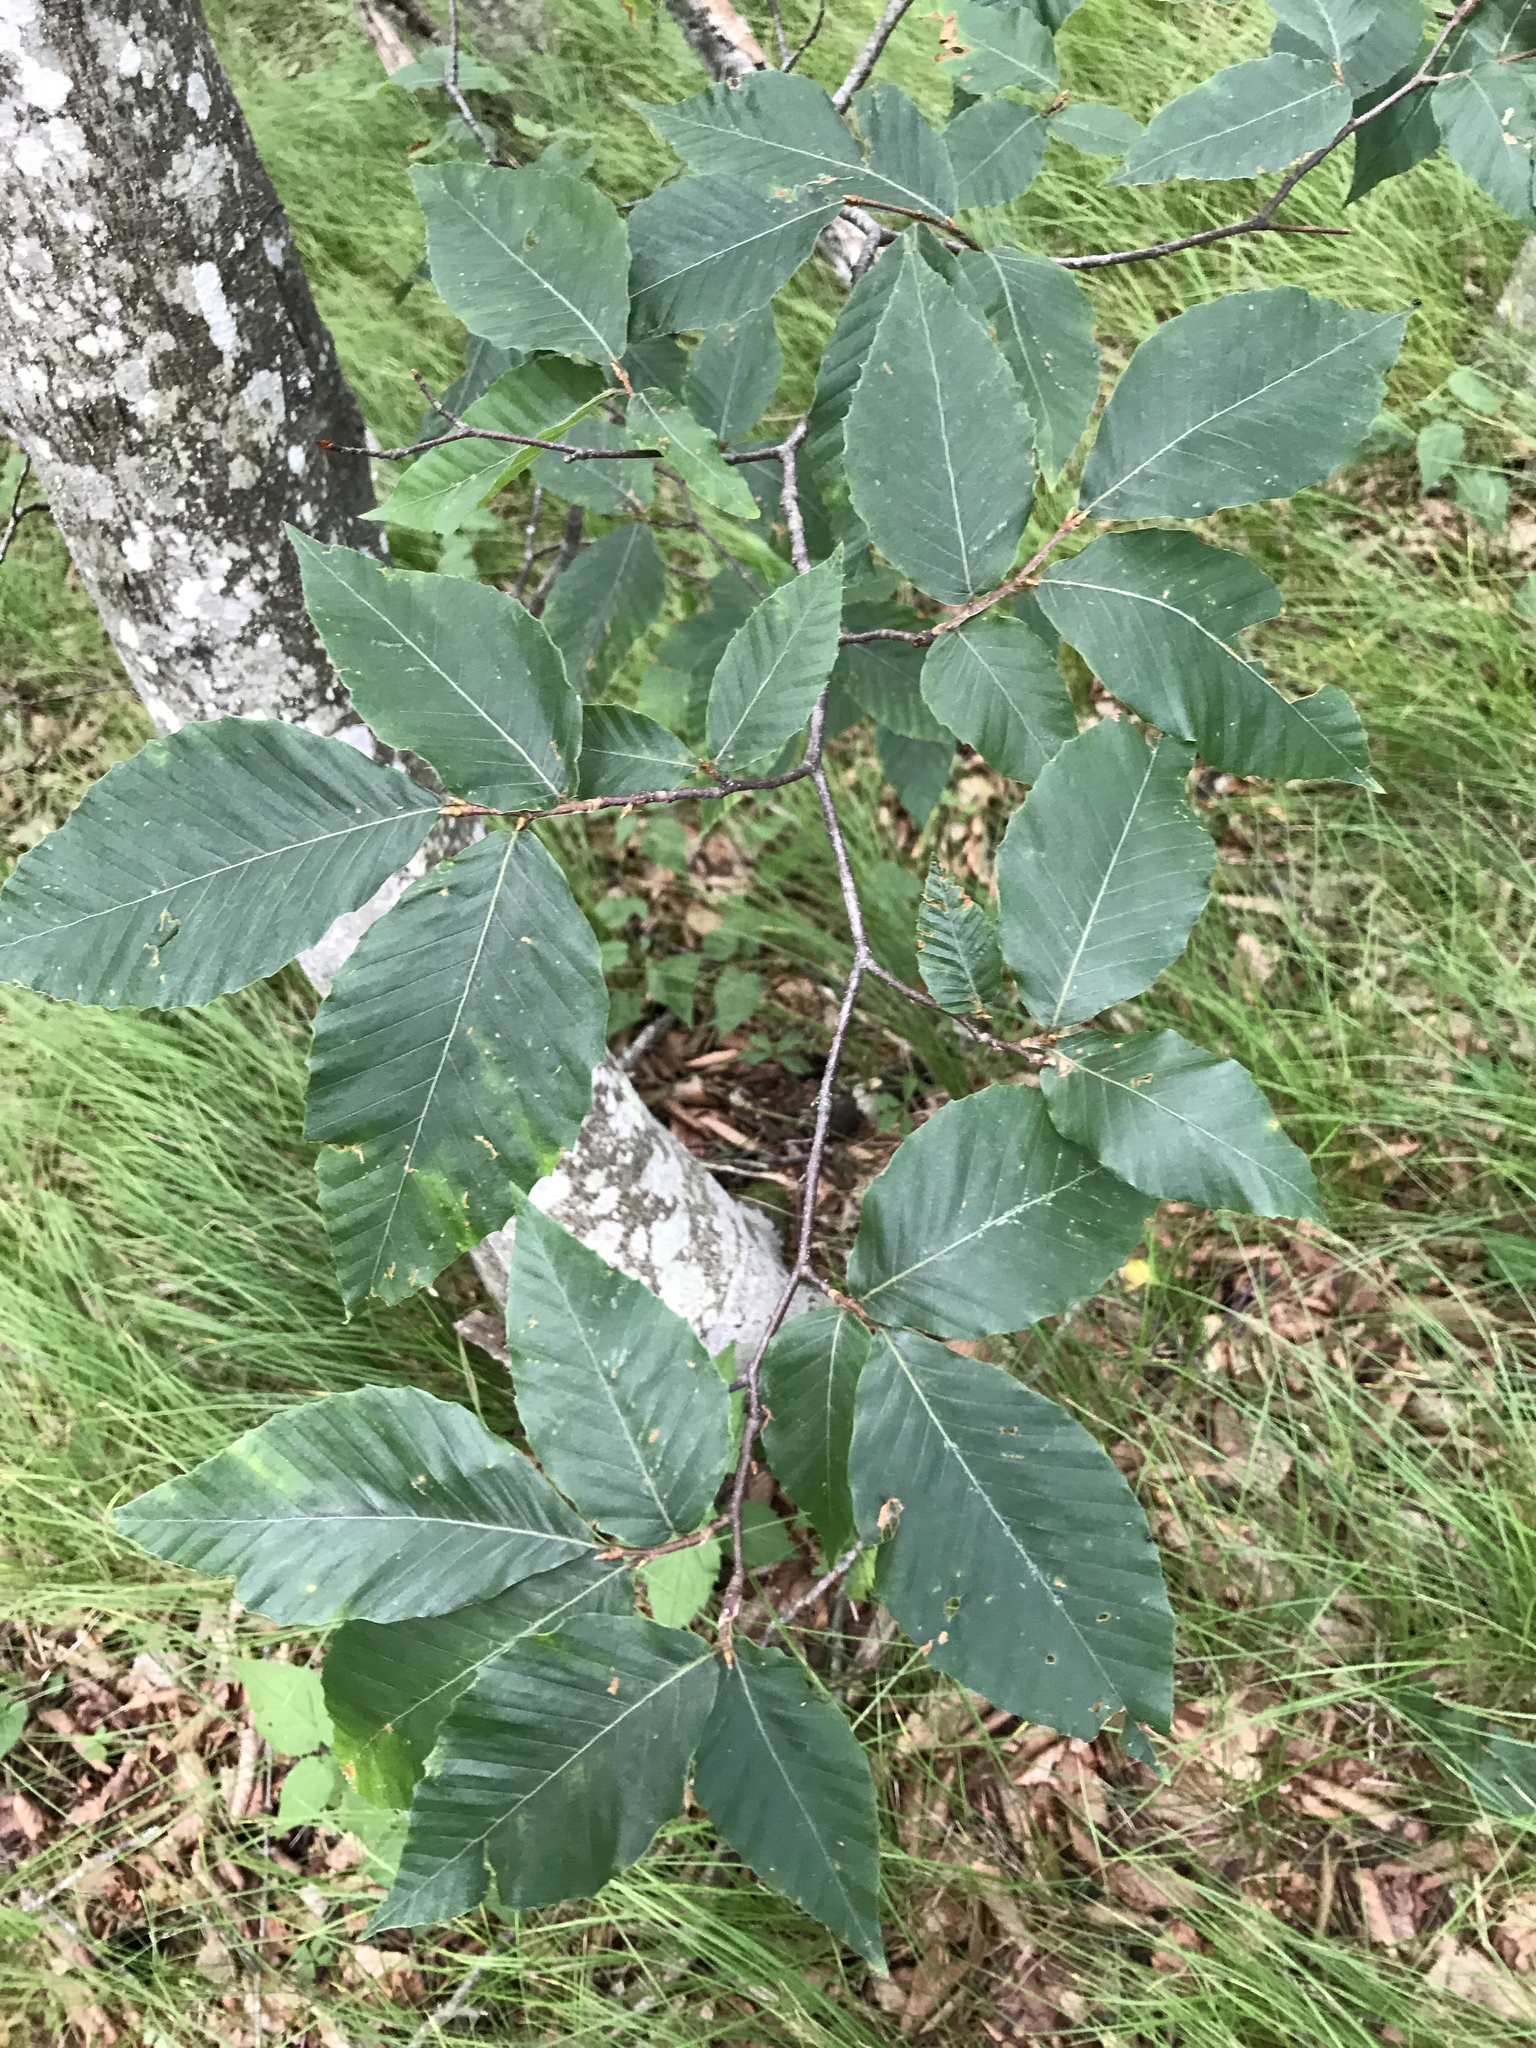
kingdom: Plantae
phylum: Tracheophyta
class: Magnoliopsida
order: Fagales
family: Fagaceae
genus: Fagus
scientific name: Fagus grandifolia
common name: American beech
